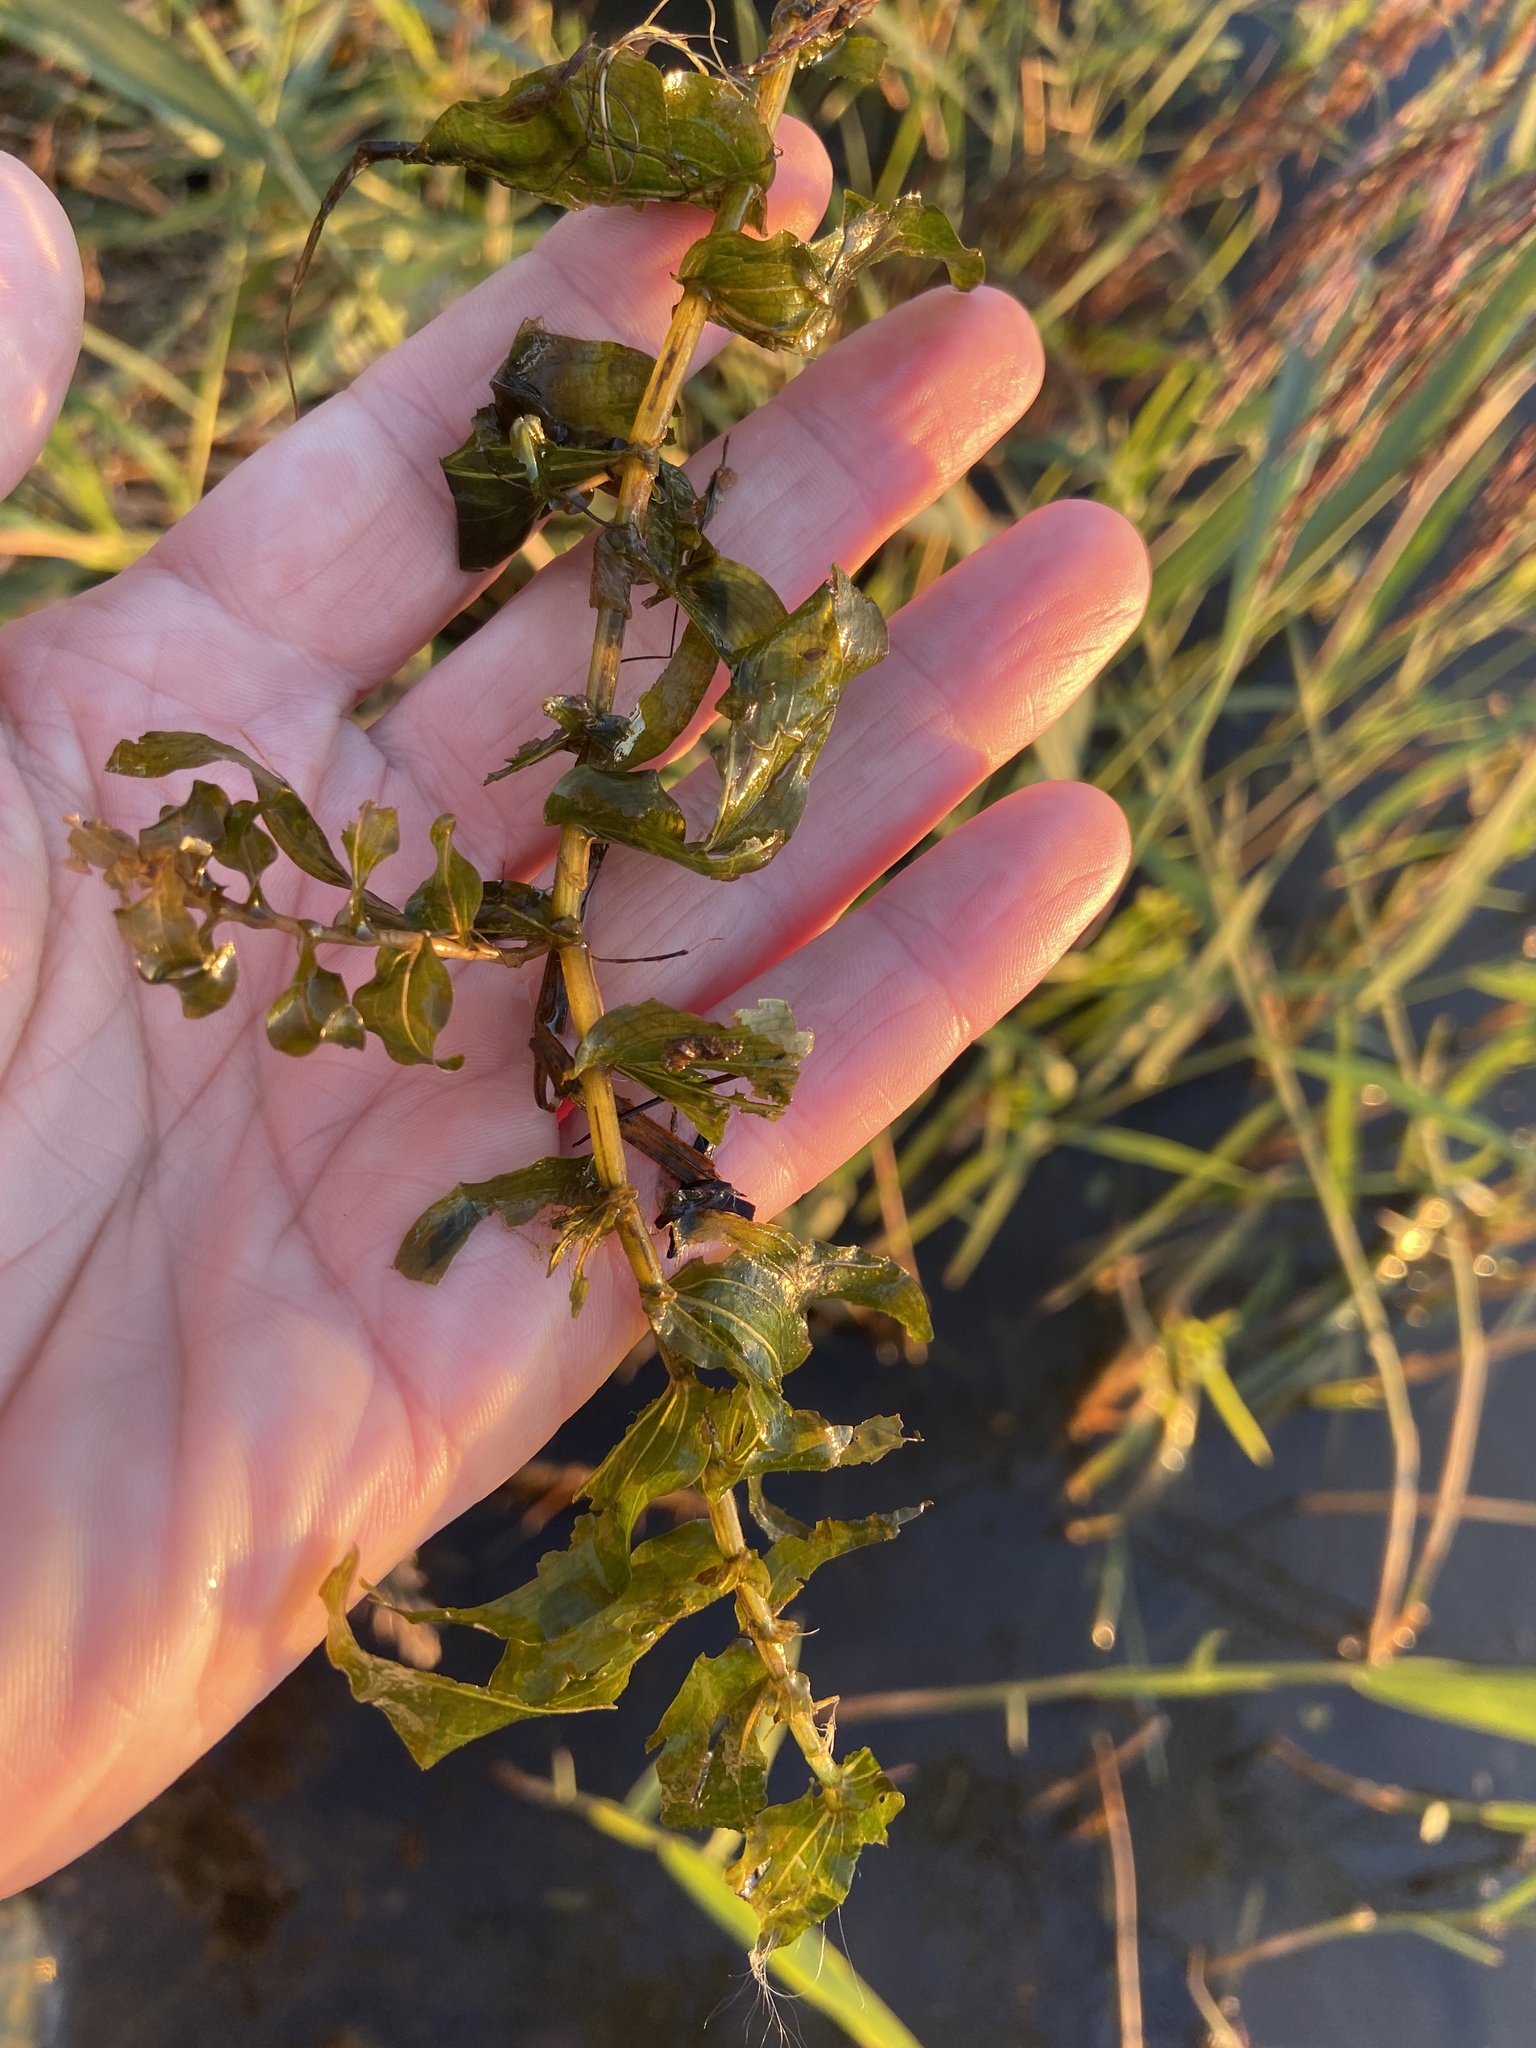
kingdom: Plantae
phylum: Tracheophyta
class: Liliopsida
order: Alismatales
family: Potamogetonaceae
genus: Potamogeton
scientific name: Potamogeton perfoliatus
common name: Perfoliate pondweed
